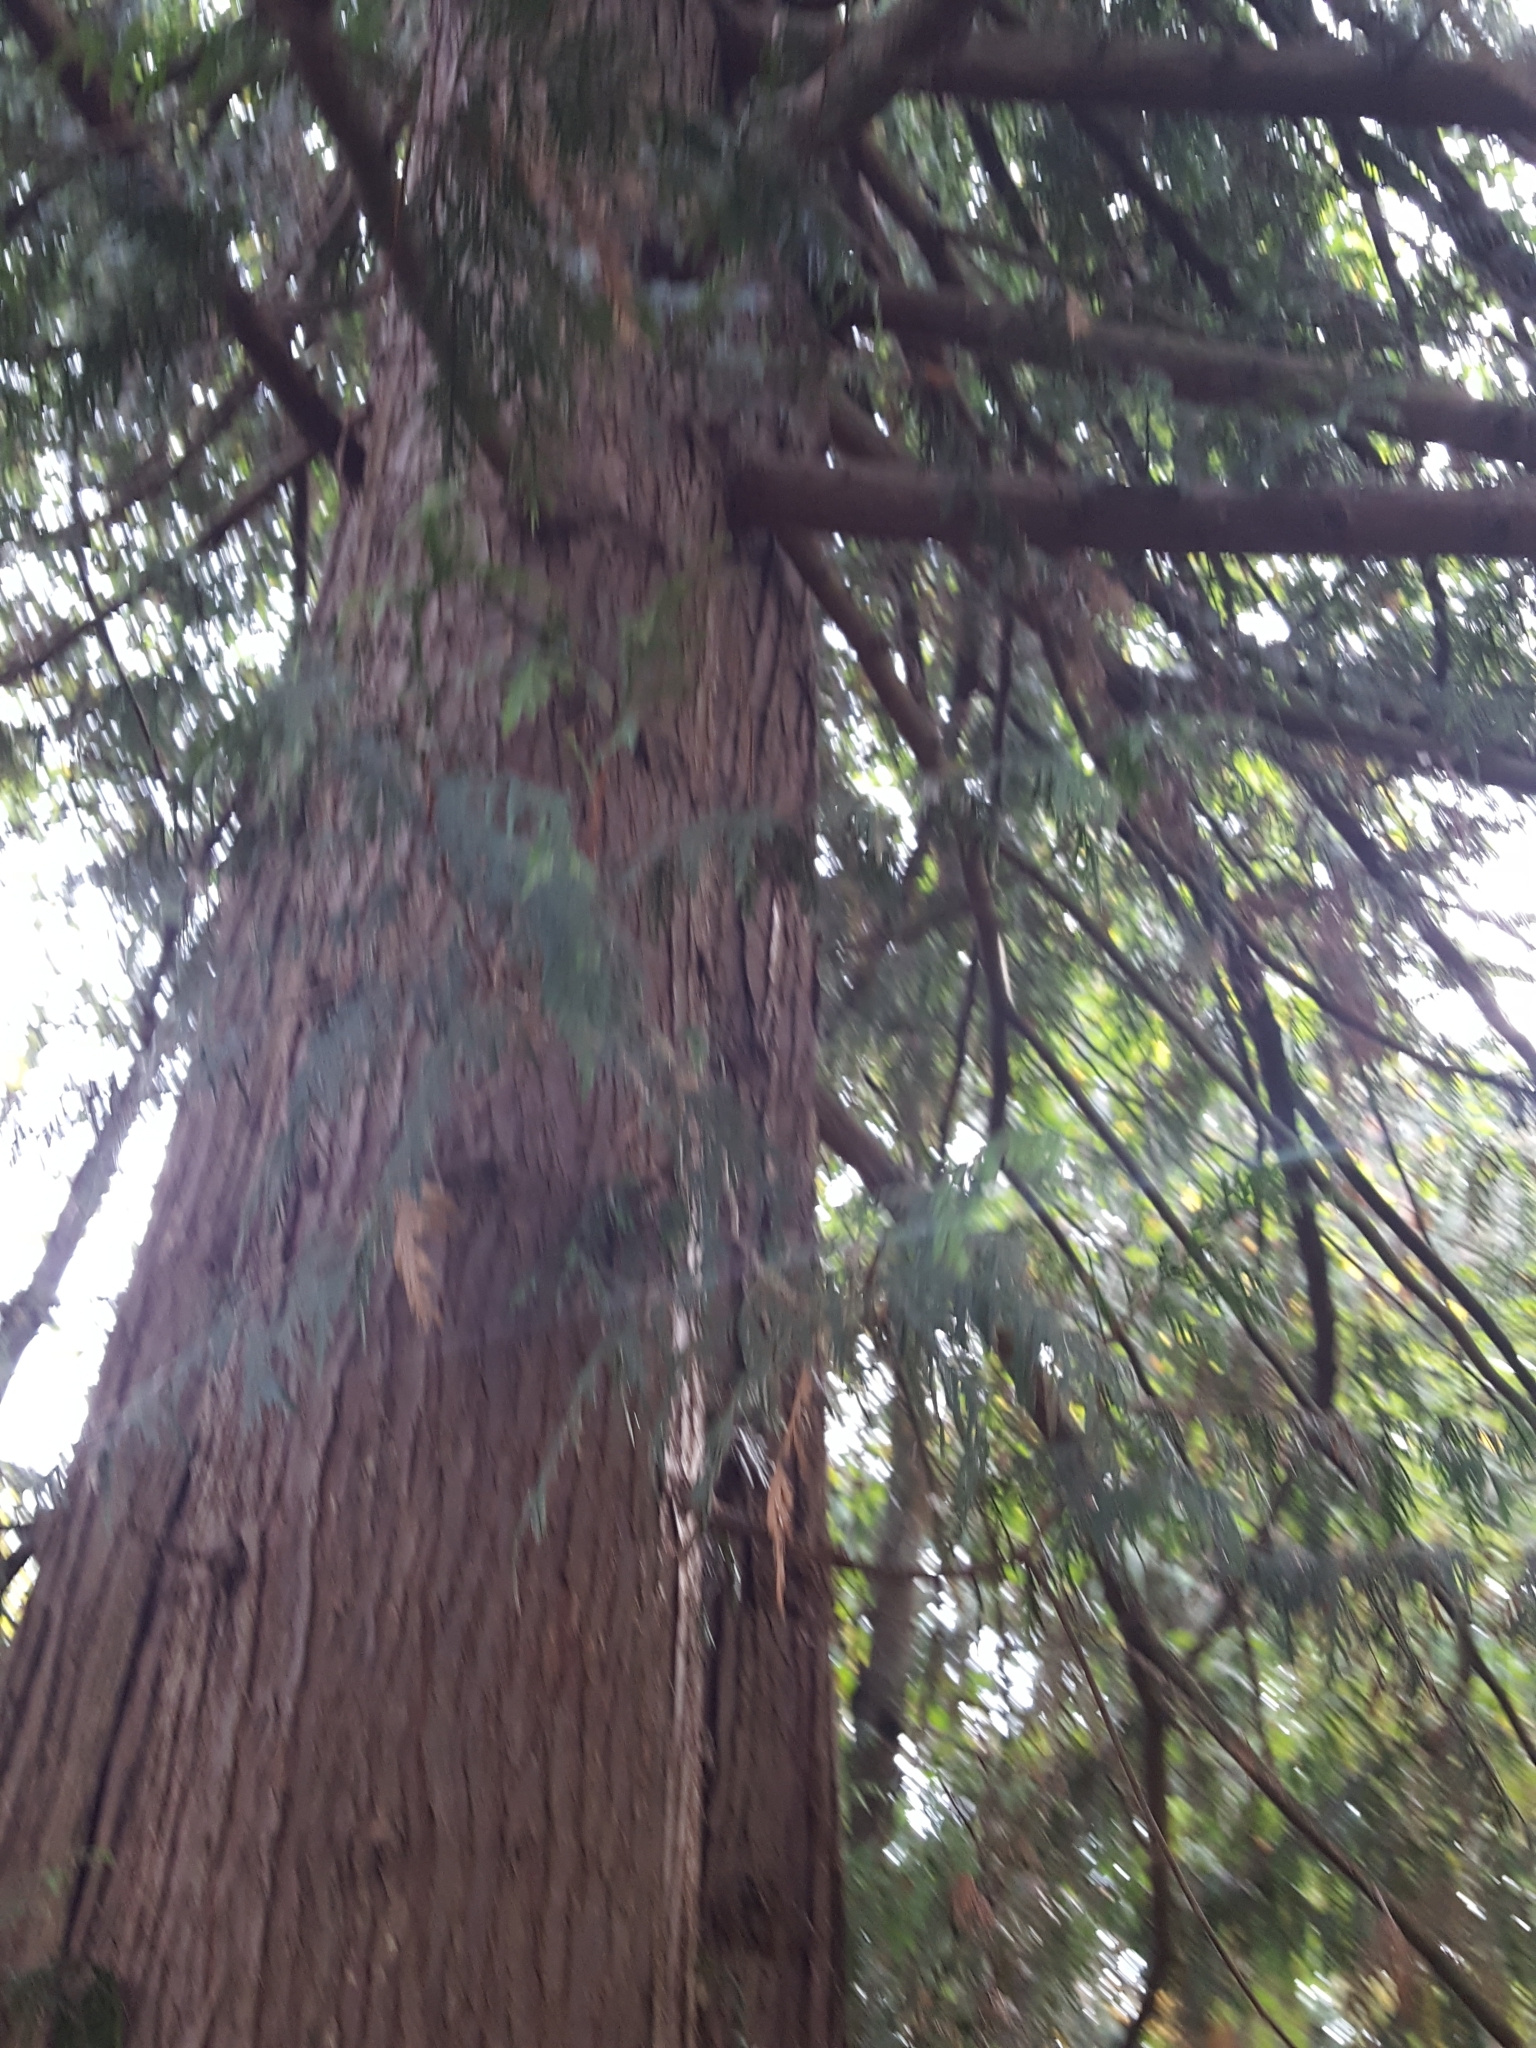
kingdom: Plantae
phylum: Tracheophyta
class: Pinopsida
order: Pinales
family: Cupressaceae
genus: Thuja
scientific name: Thuja plicata
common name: Western red-cedar
